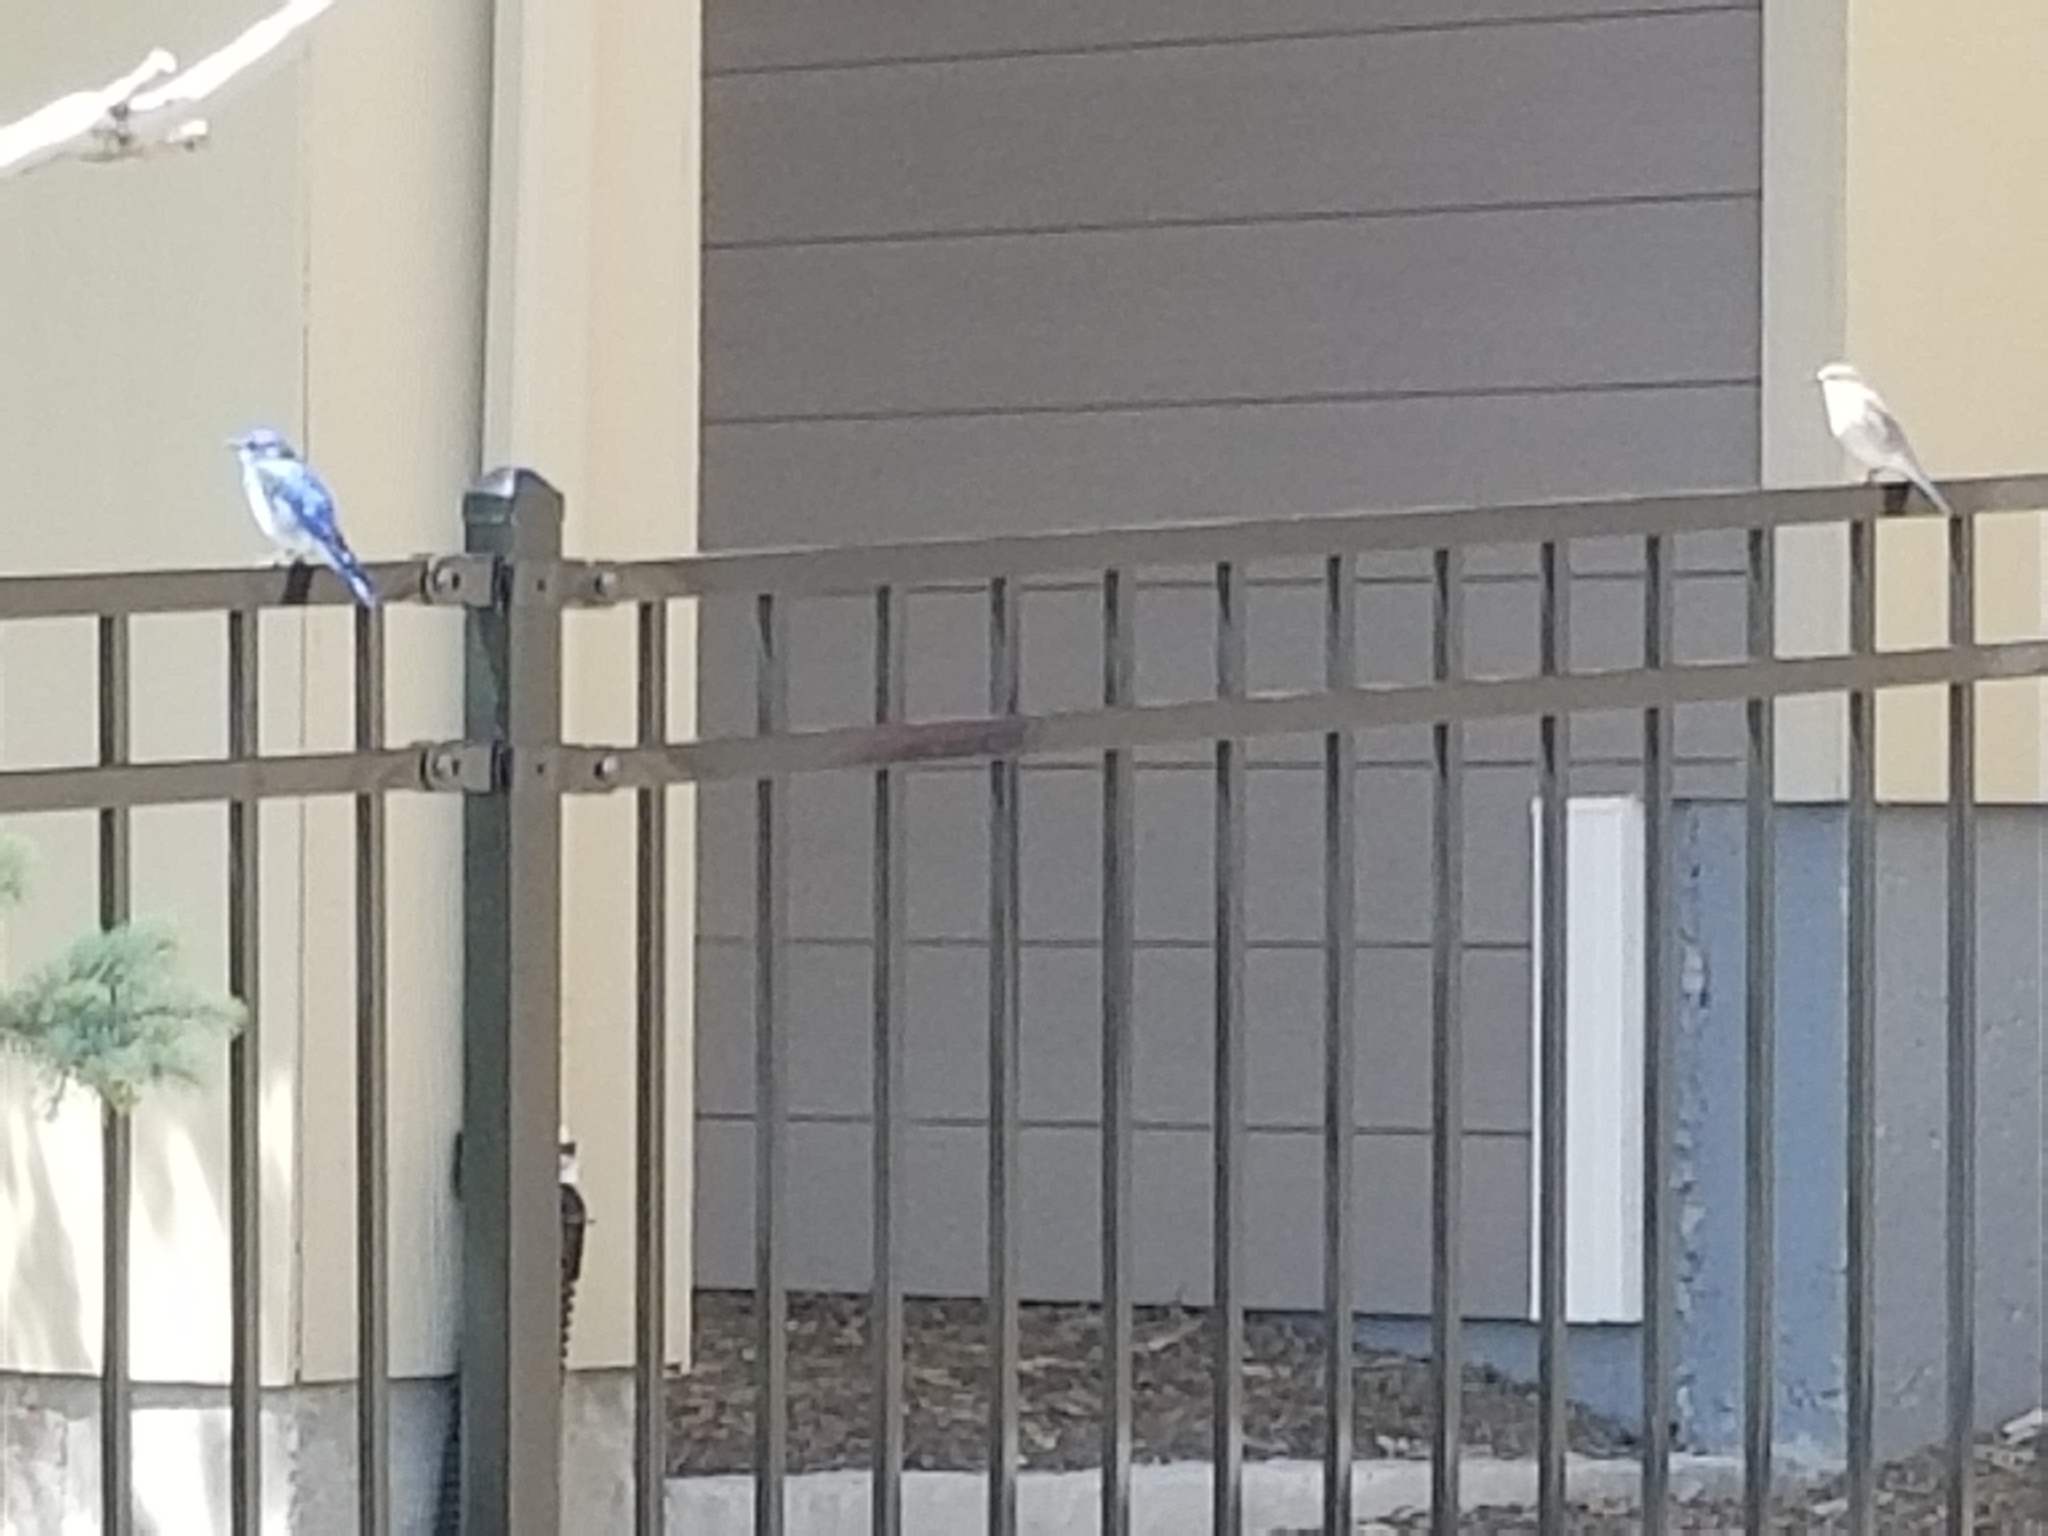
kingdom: Animalia
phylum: Chordata
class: Aves
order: Passeriformes
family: Turdidae
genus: Sialia
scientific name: Sialia currucoides
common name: Mountain bluebird
